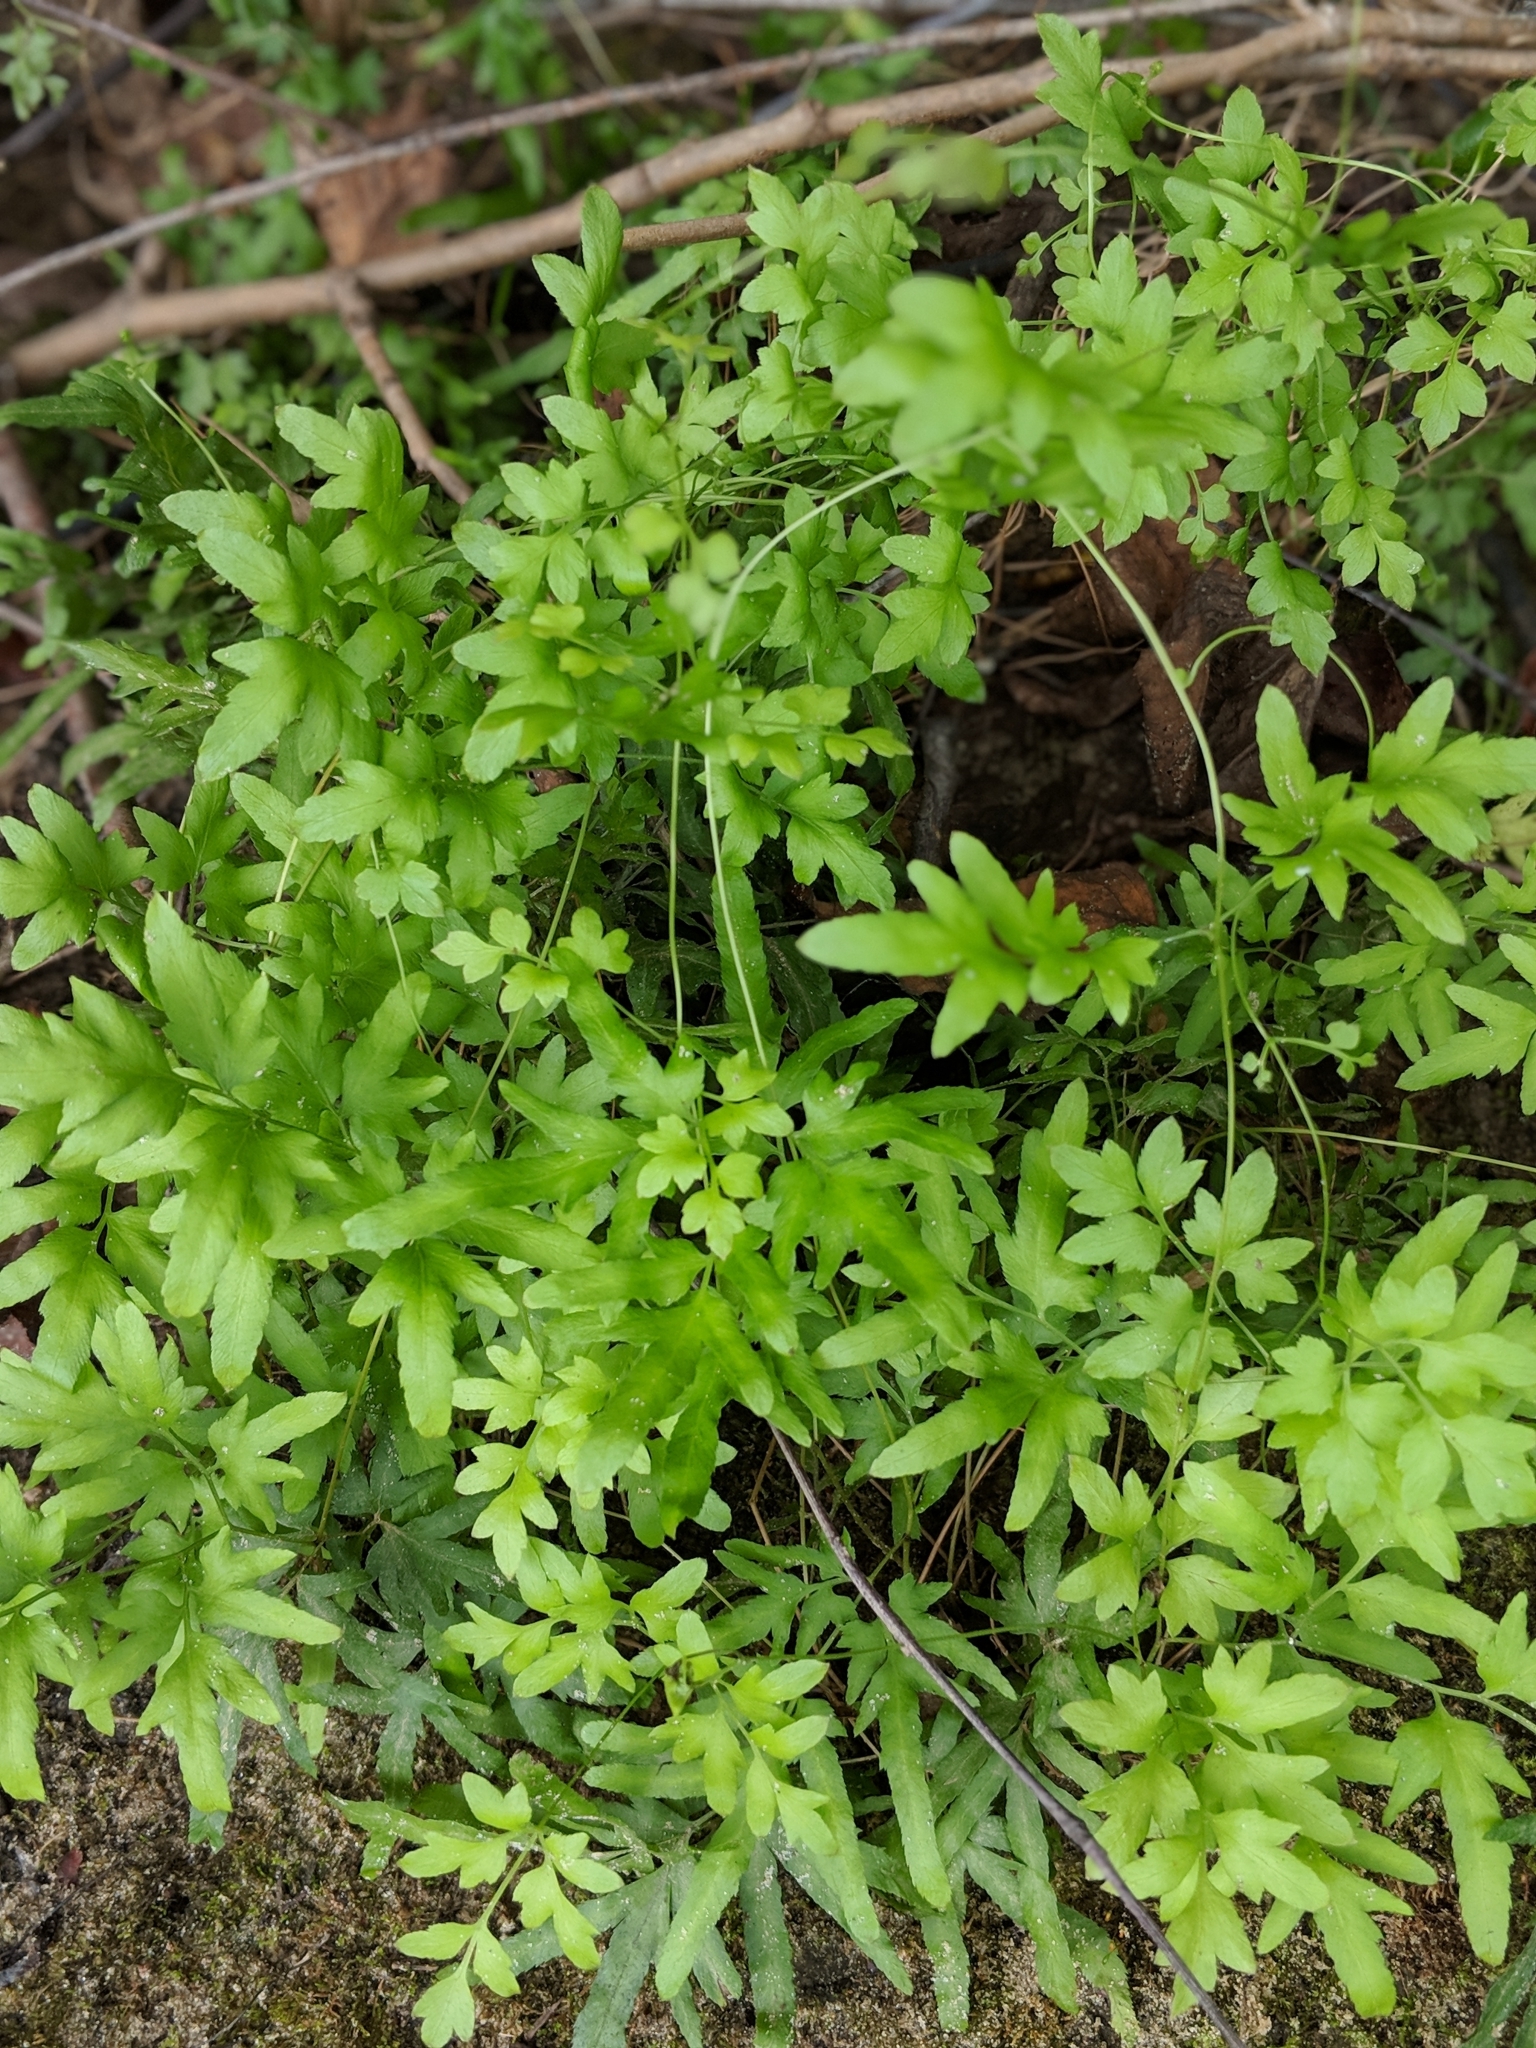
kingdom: Plantae
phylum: Tracheophyta
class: Polypodiopsida
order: Schizaeales
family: Lygodiaceae
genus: Lygodium
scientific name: Lygodium japonicum
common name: Japanese climbing fern
